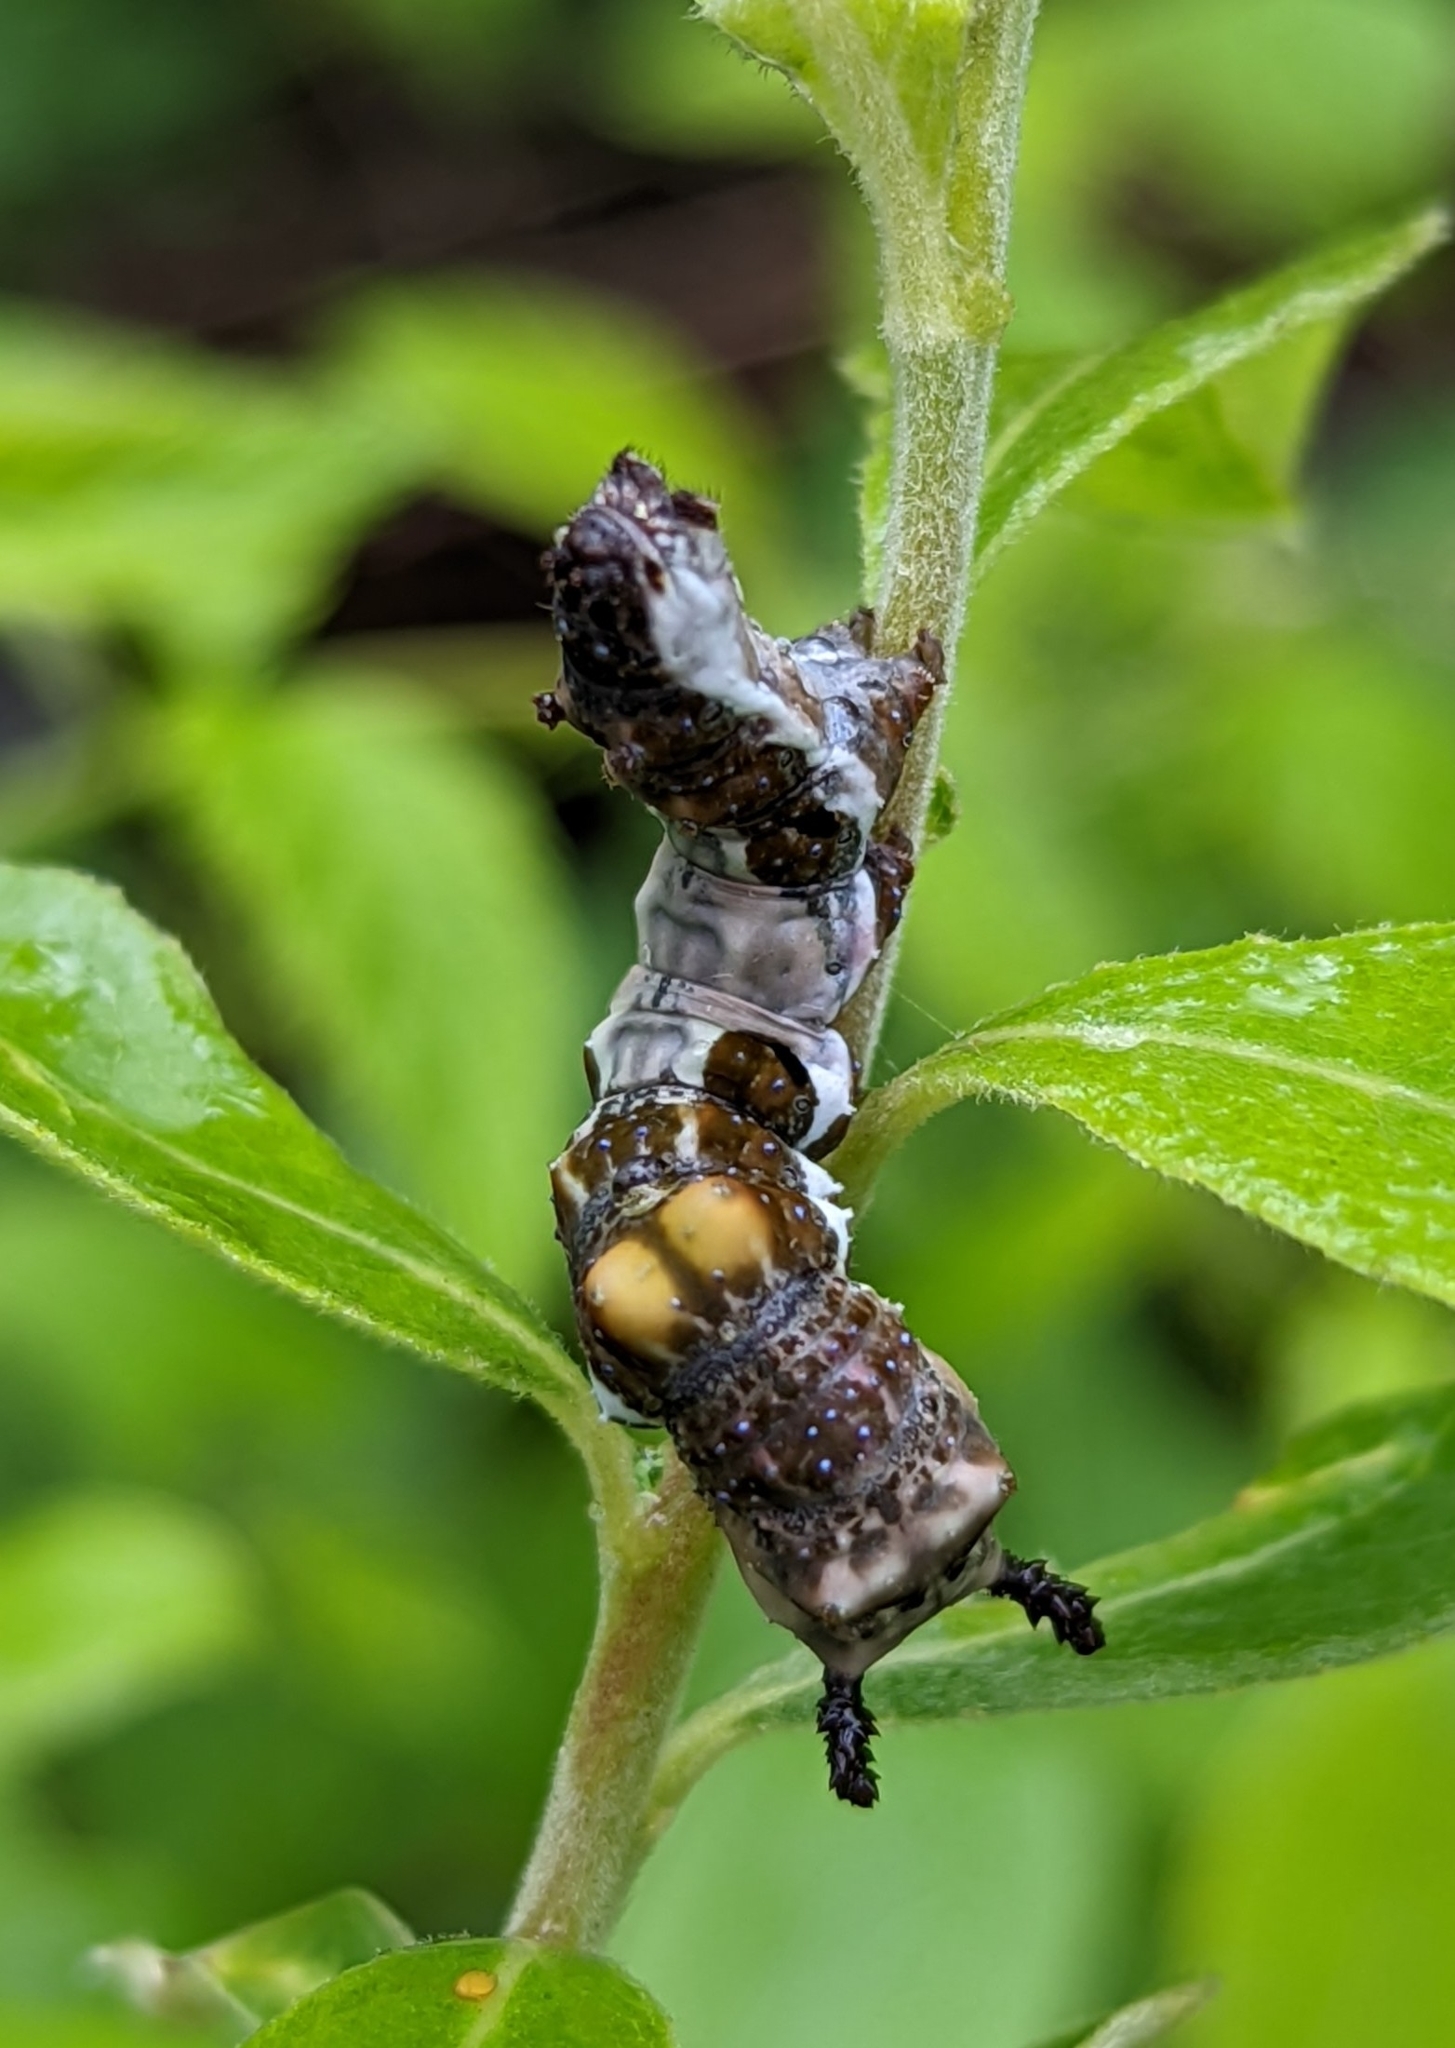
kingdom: Animalia
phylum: Arthropoda
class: Insecta
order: Lepidoptera
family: Nymphalidae
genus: Limenitis
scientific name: Limenitis lorquini
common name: Lorquin's admiral
